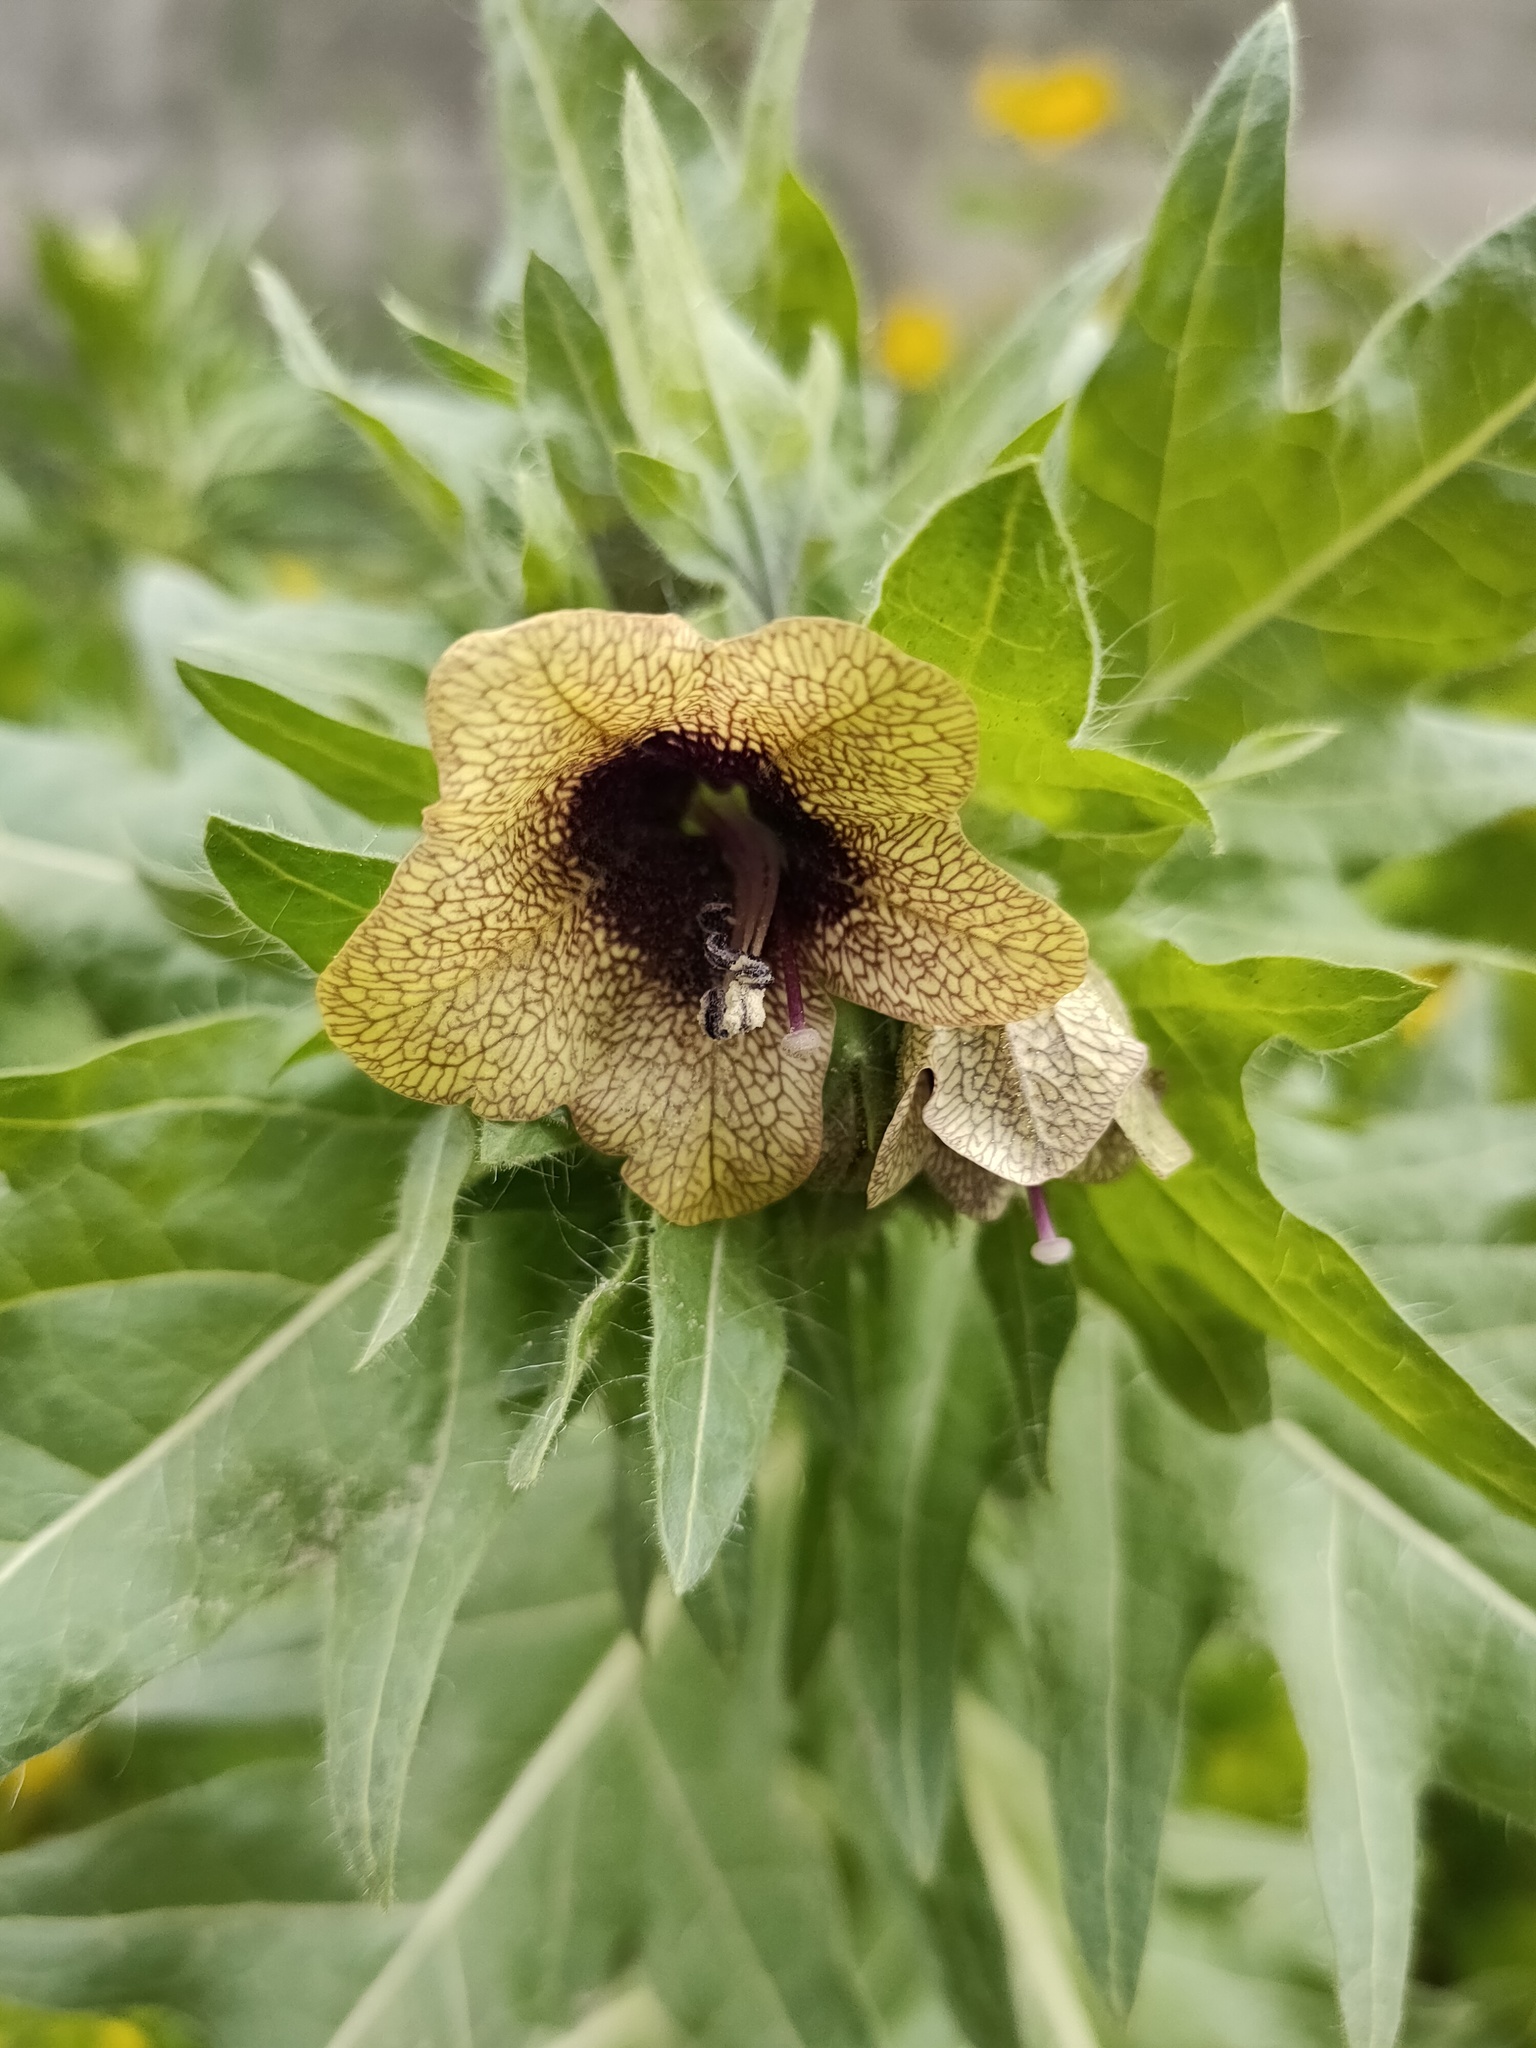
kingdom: Plantae
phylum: Tracheophyta
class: Magnoliopsida
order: Solanales
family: Solanaceae
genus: Hyoscyamus
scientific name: Hyoscyamus niger
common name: Henbane
